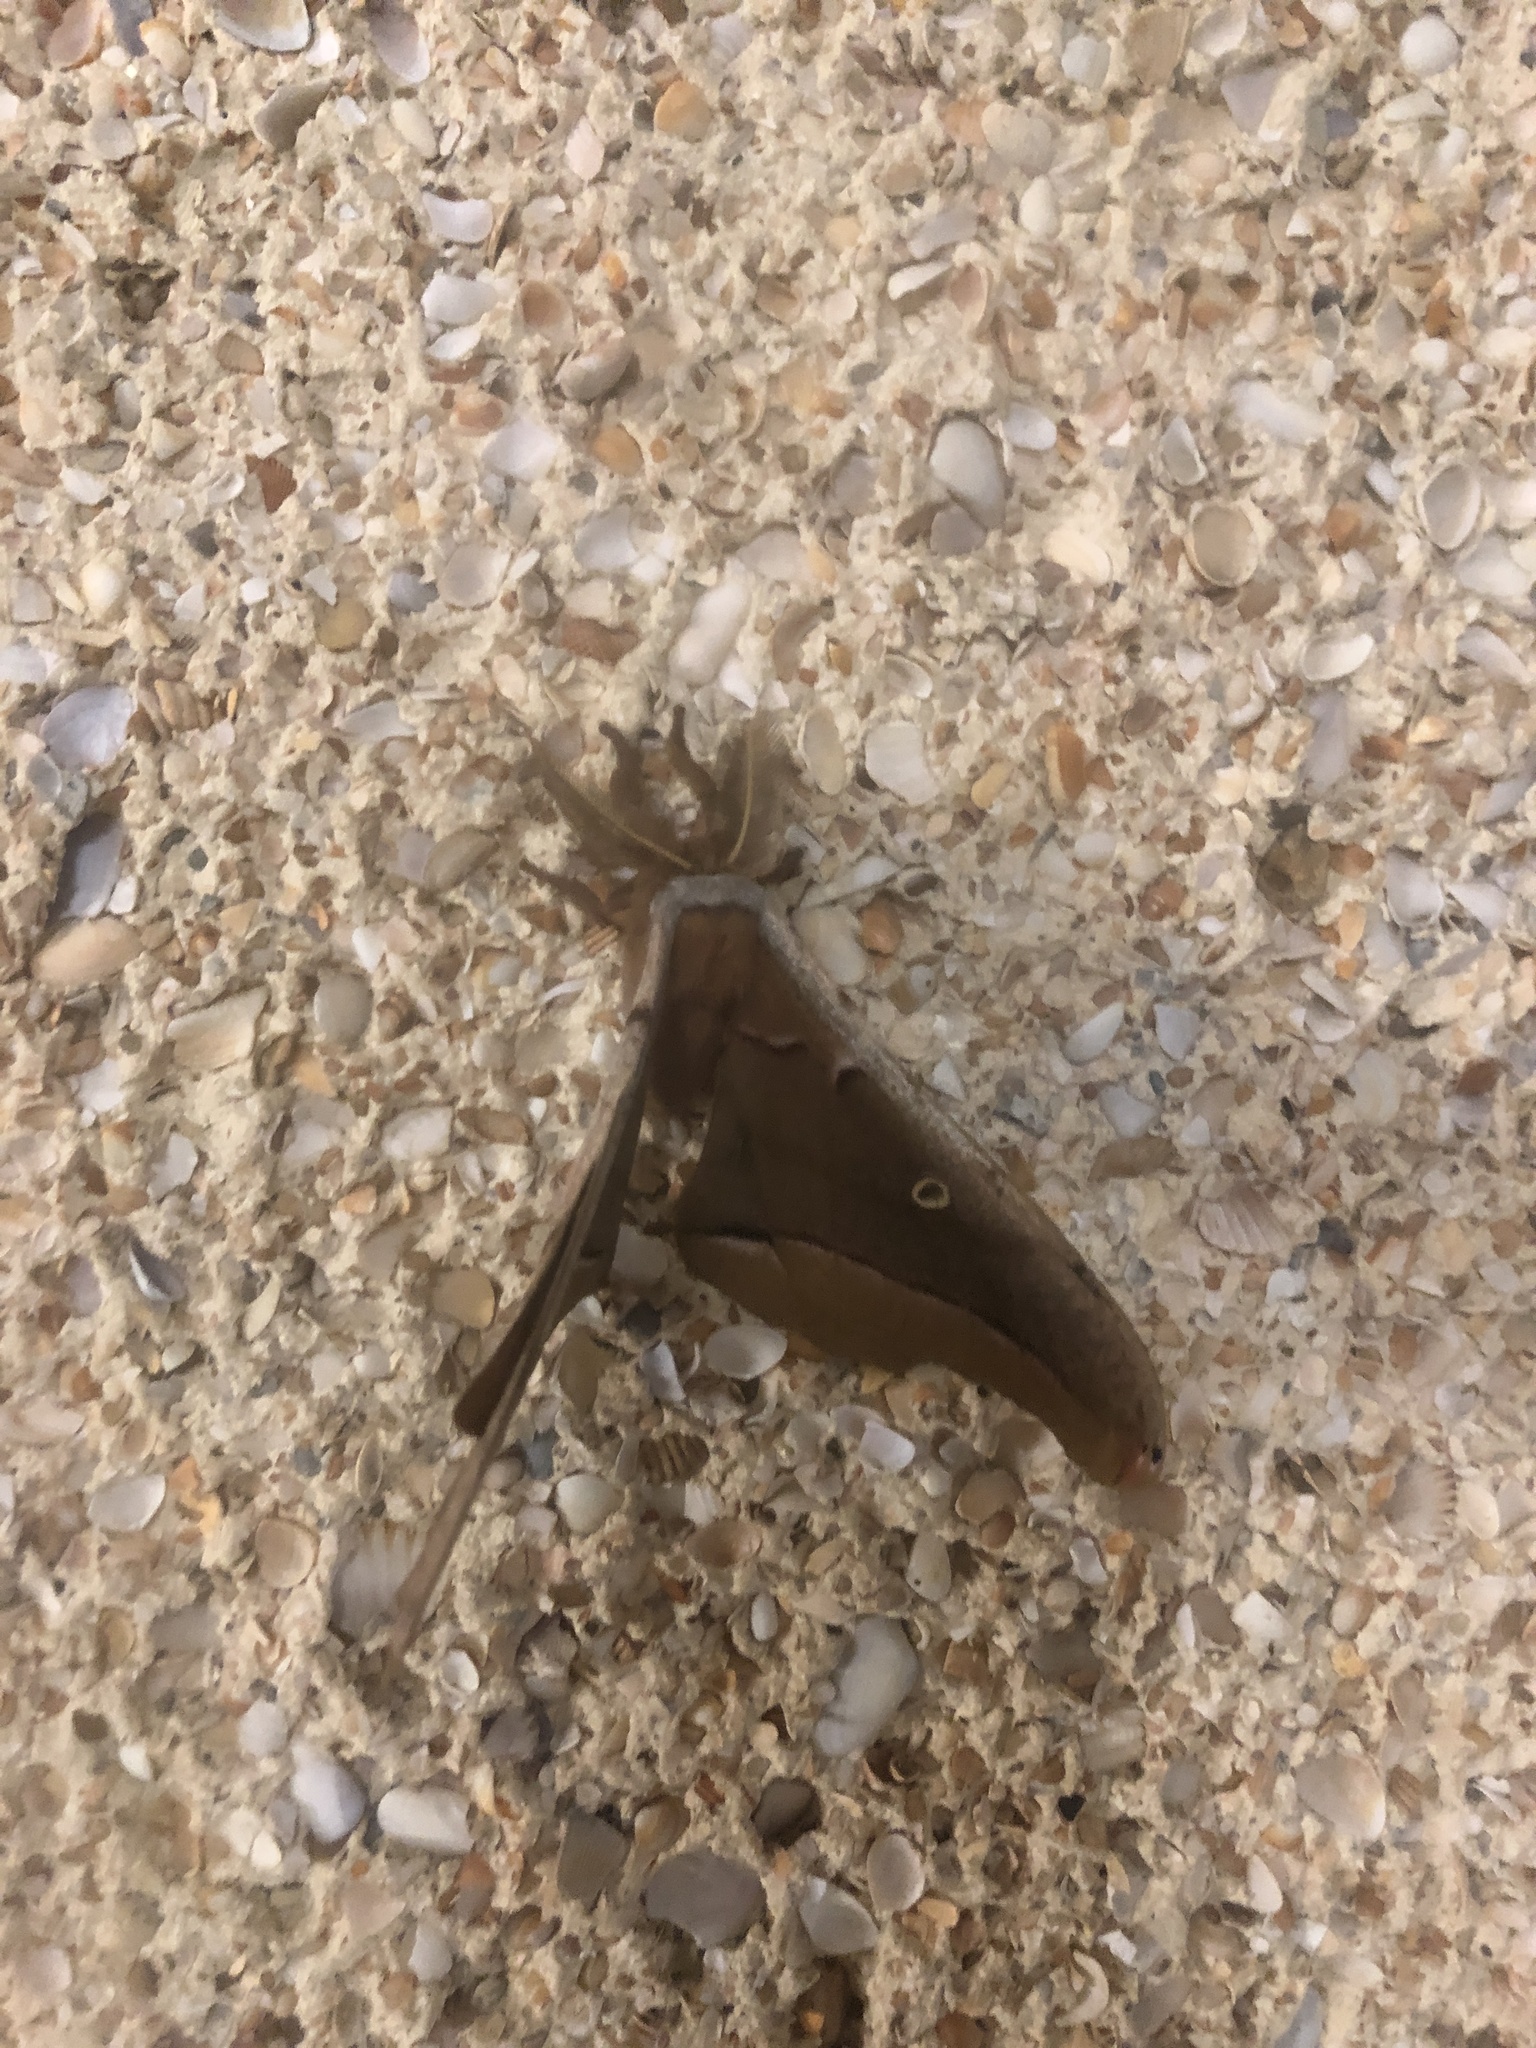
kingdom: Animalia
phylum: Arthropoda
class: Insecta
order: Lepidoptera
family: Saturniidae
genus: Antheraea
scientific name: Antheraea polyphemus
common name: Polyphemus moth
